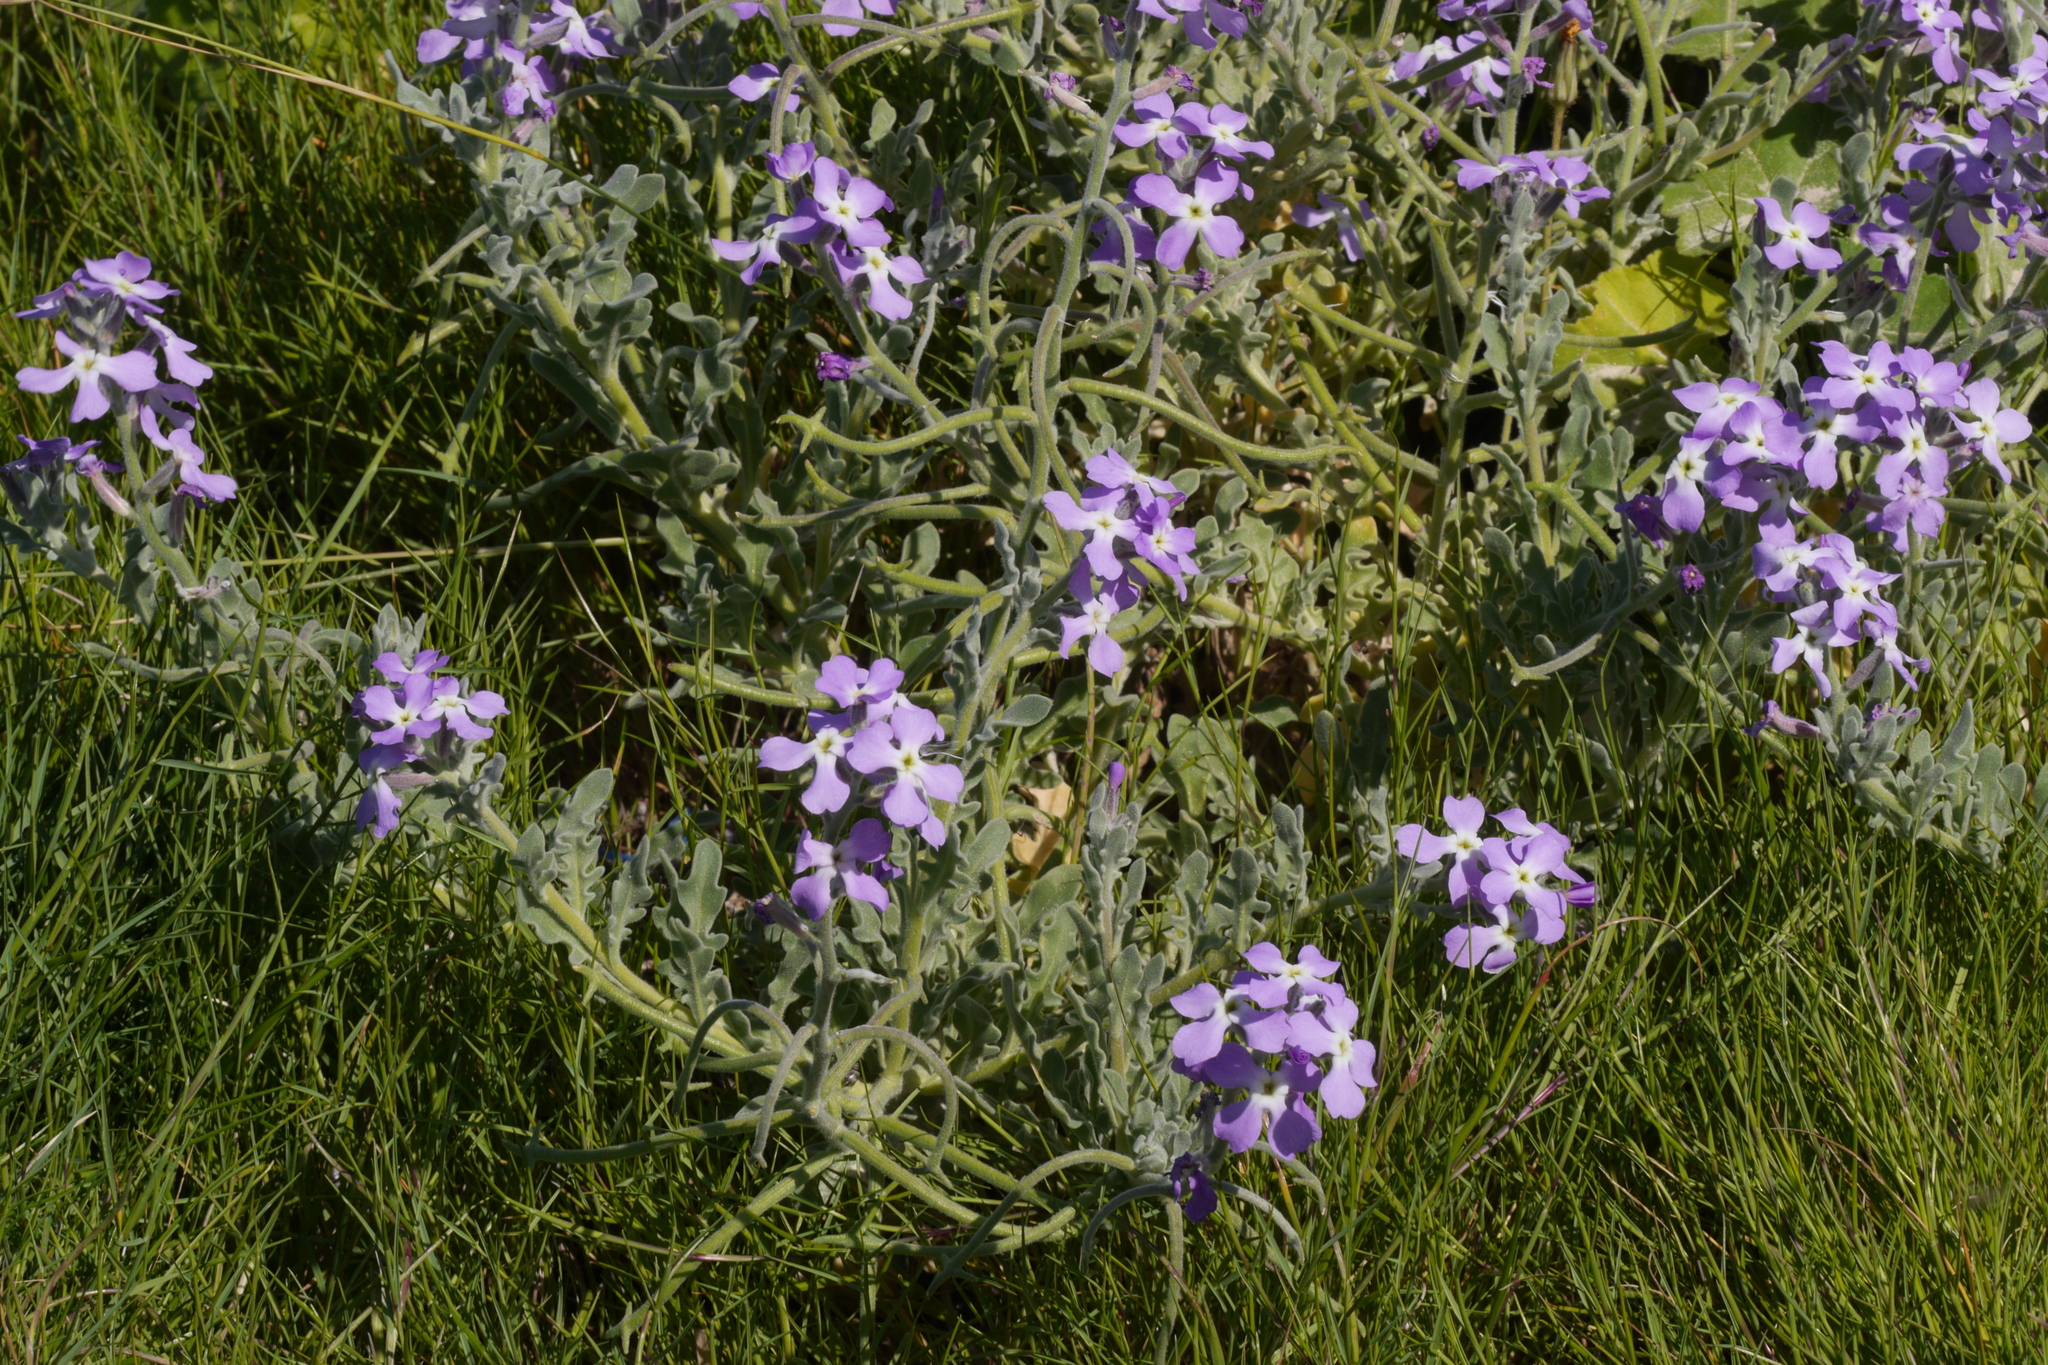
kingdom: Plantae
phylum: Tracheophyta
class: Magnoliopsida
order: Brassicales
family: Brassicaceae
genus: Matthiola
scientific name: Matthiola sinuata
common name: Sea stock
